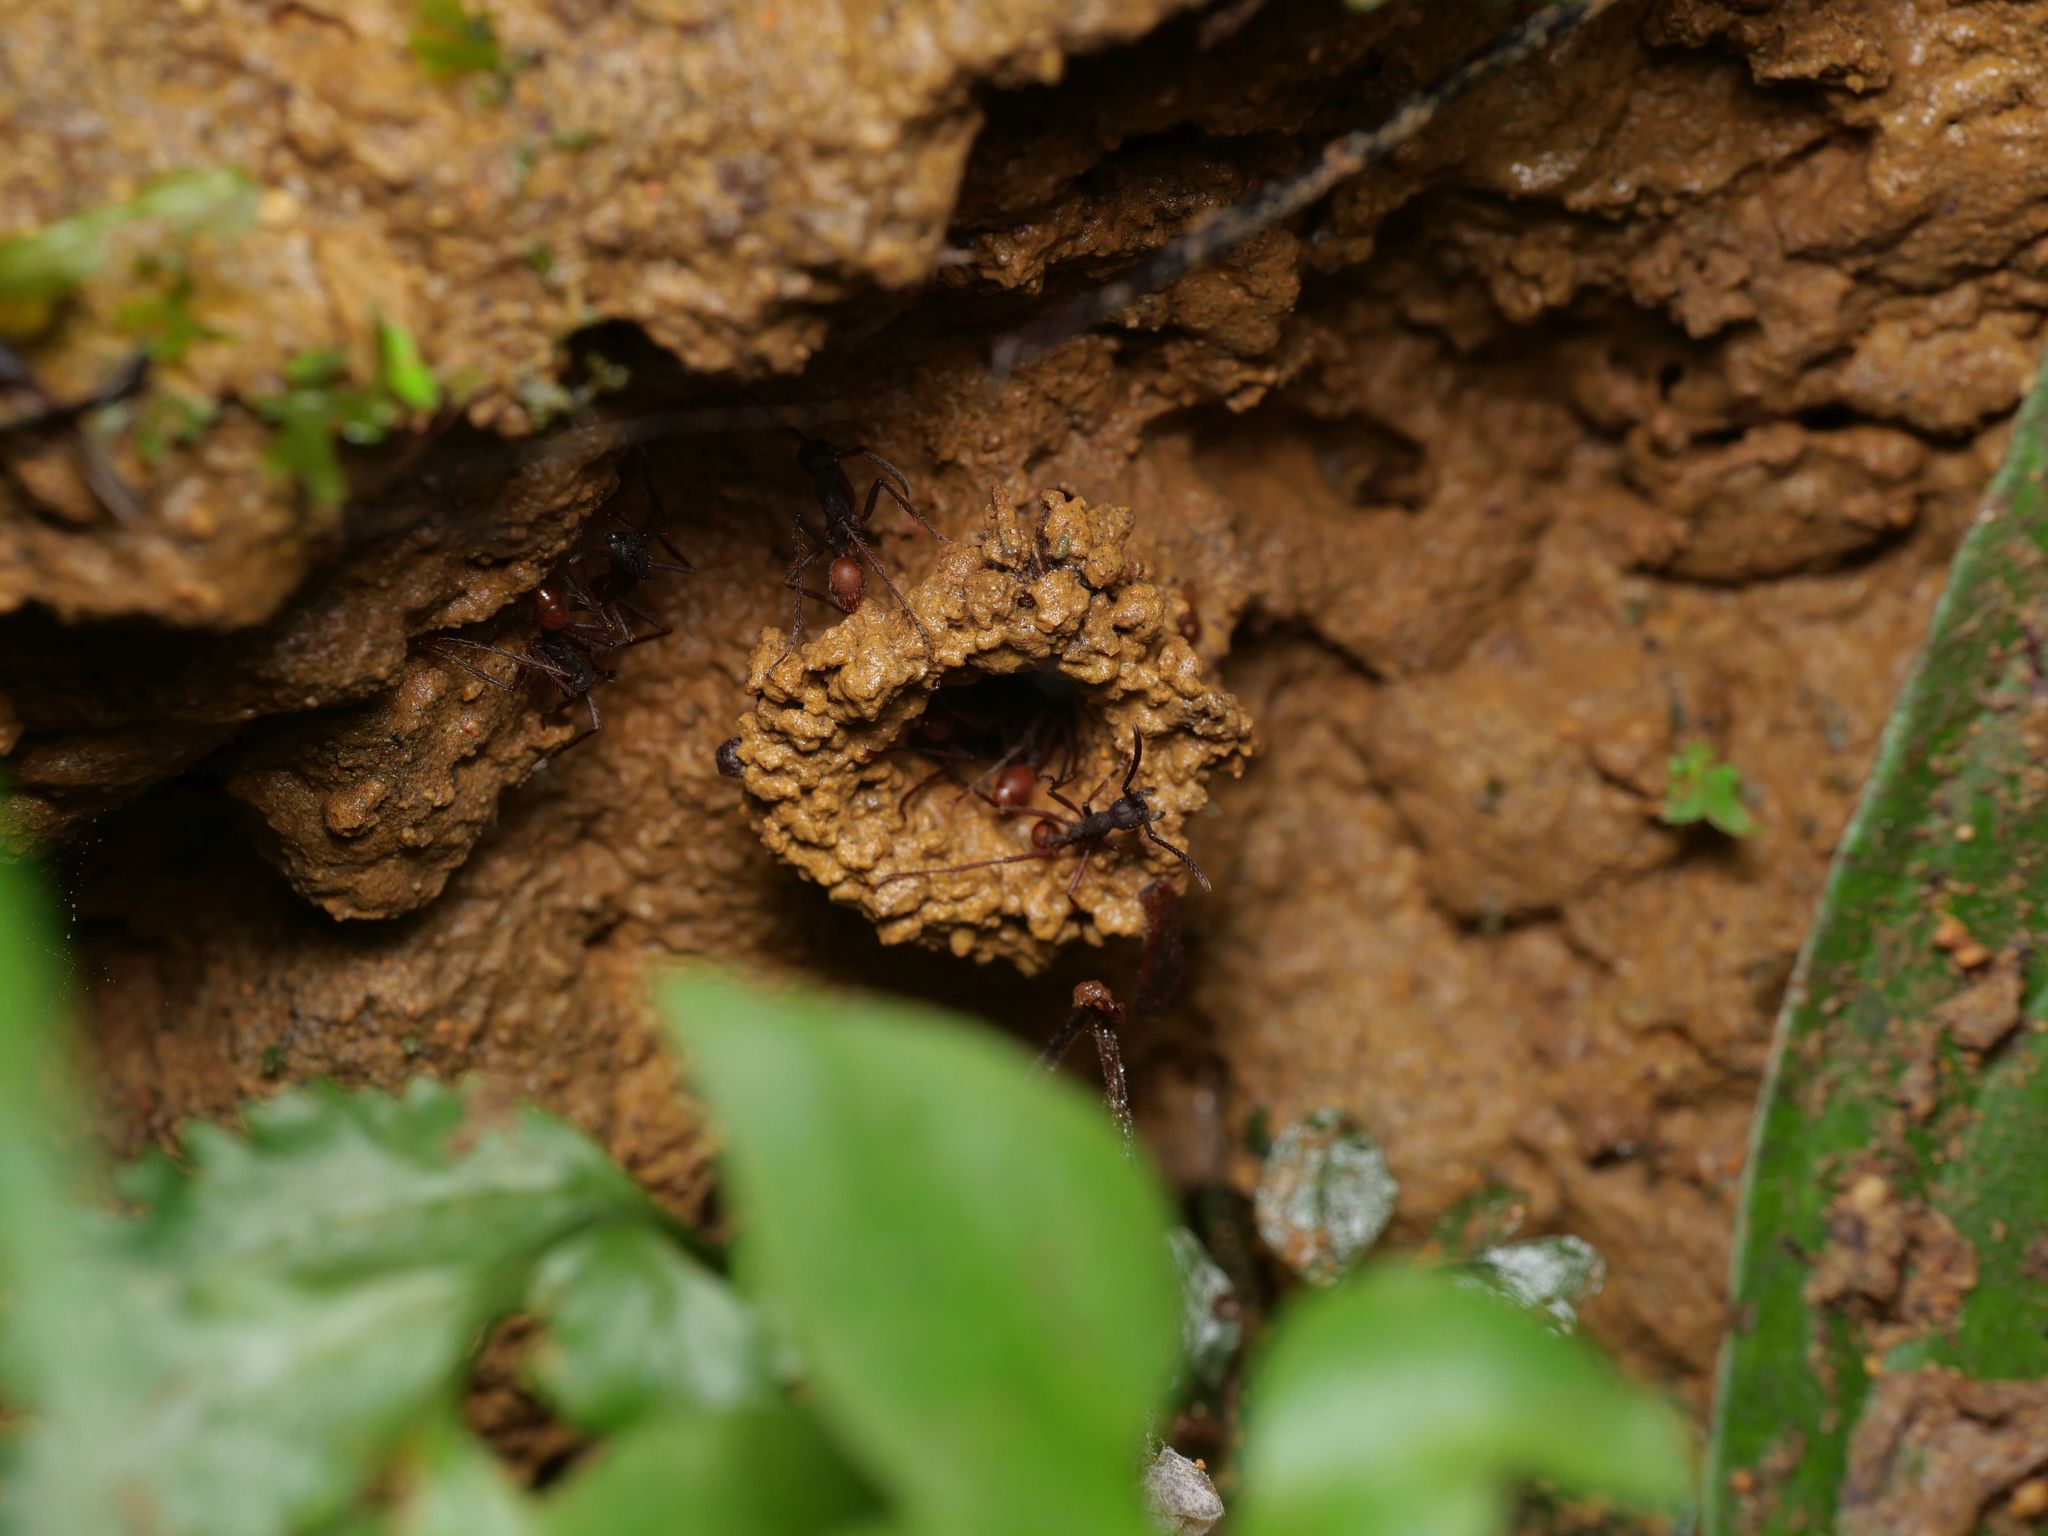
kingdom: Animalia
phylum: Arthropoda
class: Insecta
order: Hymenoptera
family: Formicidae
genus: Eciton
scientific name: Eciton mexicanum
